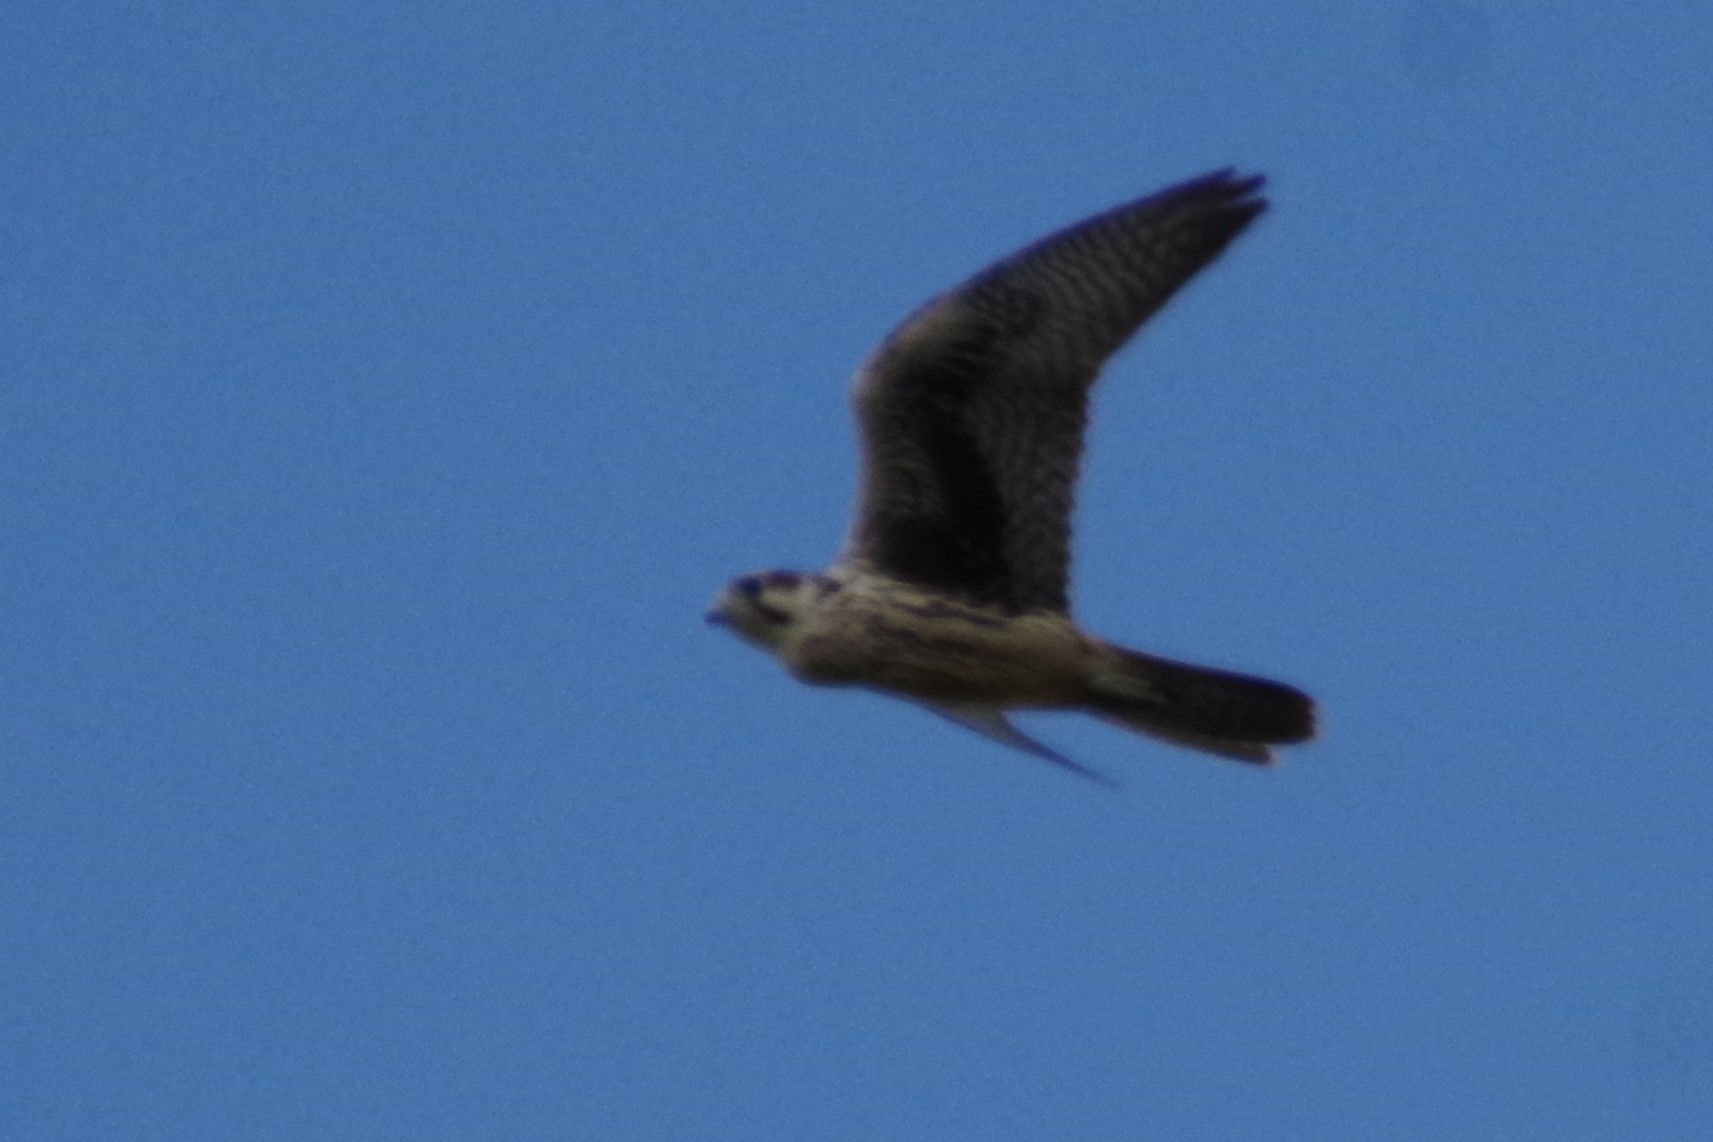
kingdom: Animalia
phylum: Chordata
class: Aves
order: Falconiformes
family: Falconidae
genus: Falco
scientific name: Falco mexicanus
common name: Prairie falcon
